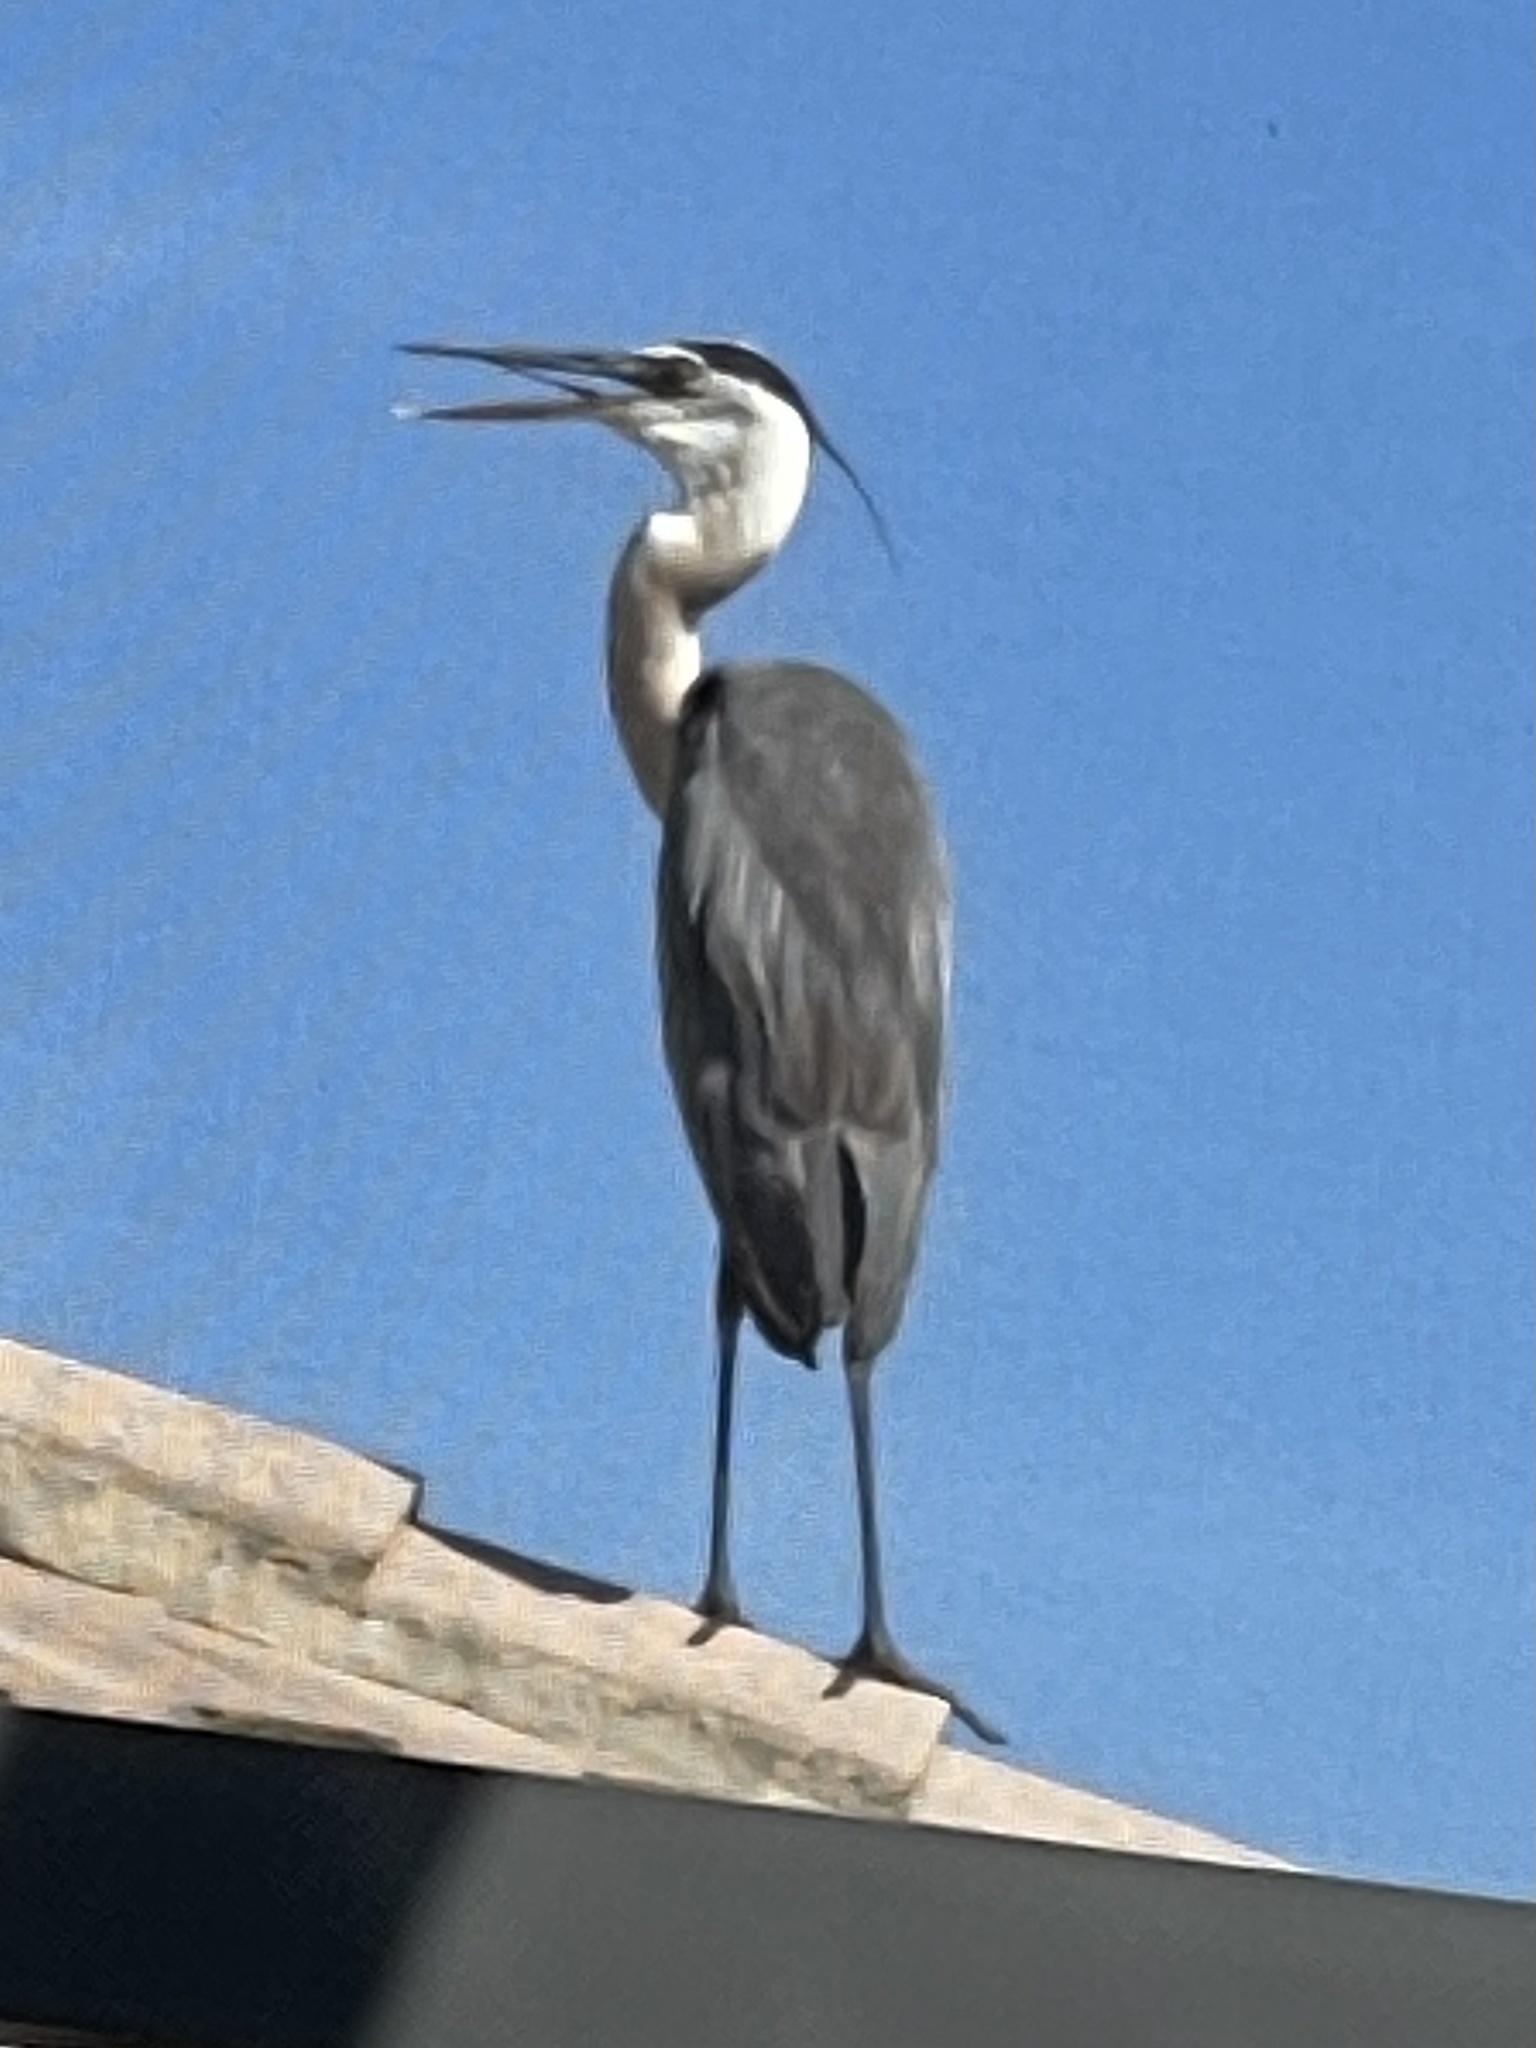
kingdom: Animalia
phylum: Chordata
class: Aves
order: Pelecaniformes
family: Ardeidae
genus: Ardea
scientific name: Ardea herodias
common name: Great blue heron
